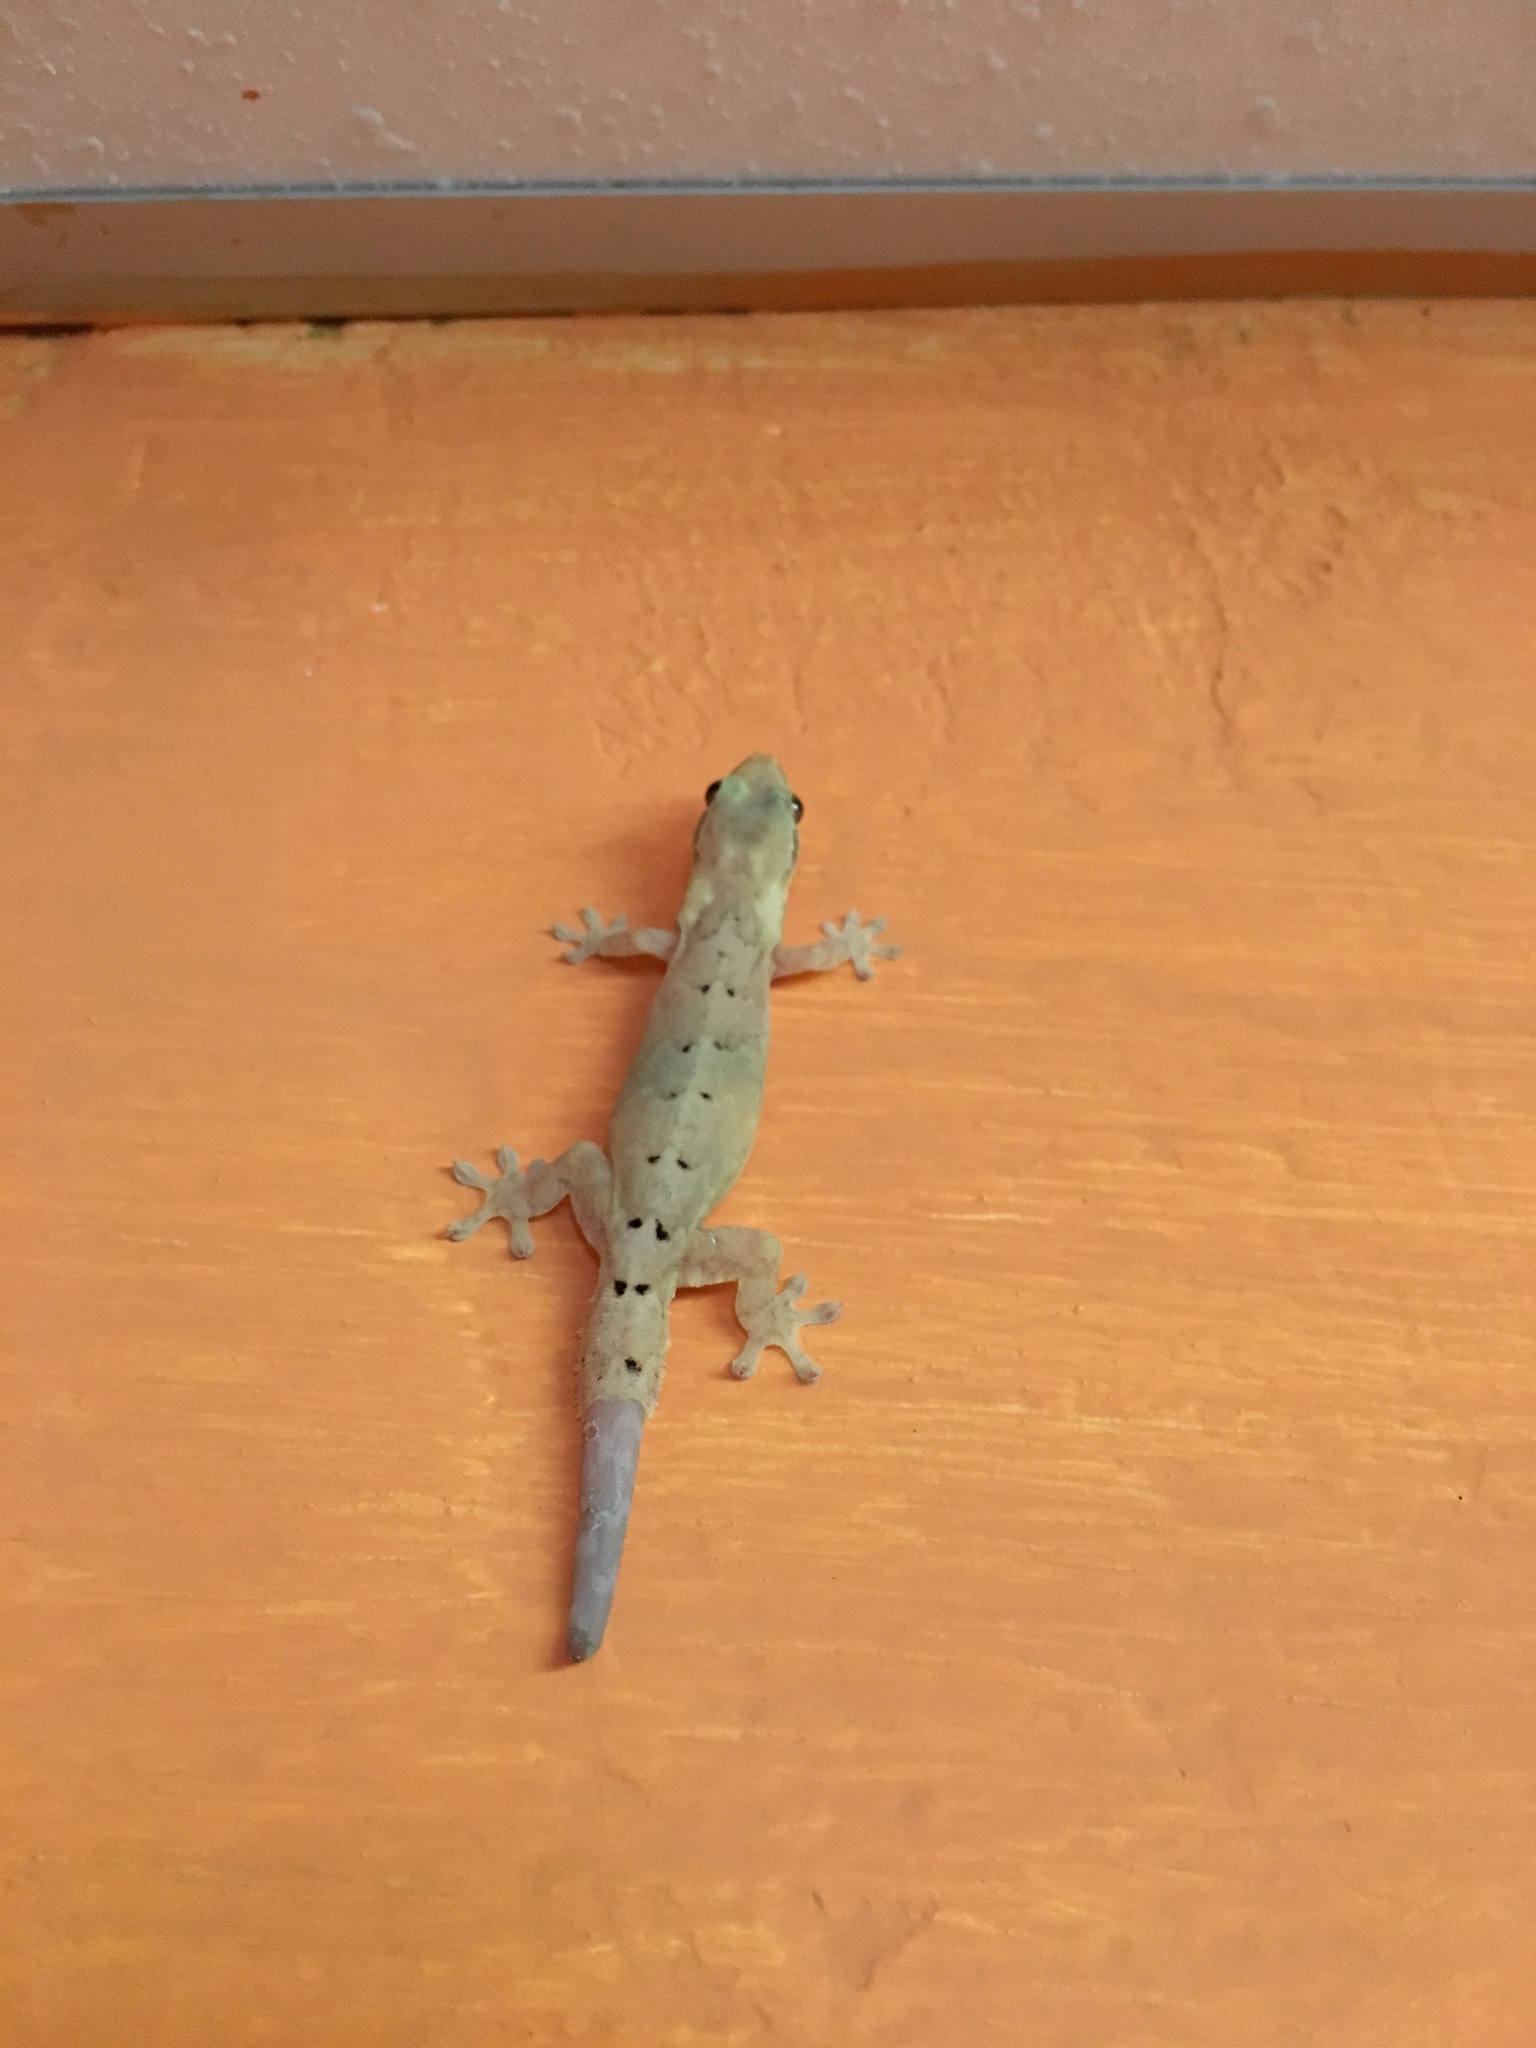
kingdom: Animalia
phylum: Chordata
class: Squamata
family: Gekkonidae
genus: Lepidodactylus
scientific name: Lepidodactylus lugubris
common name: Mourning gecko
